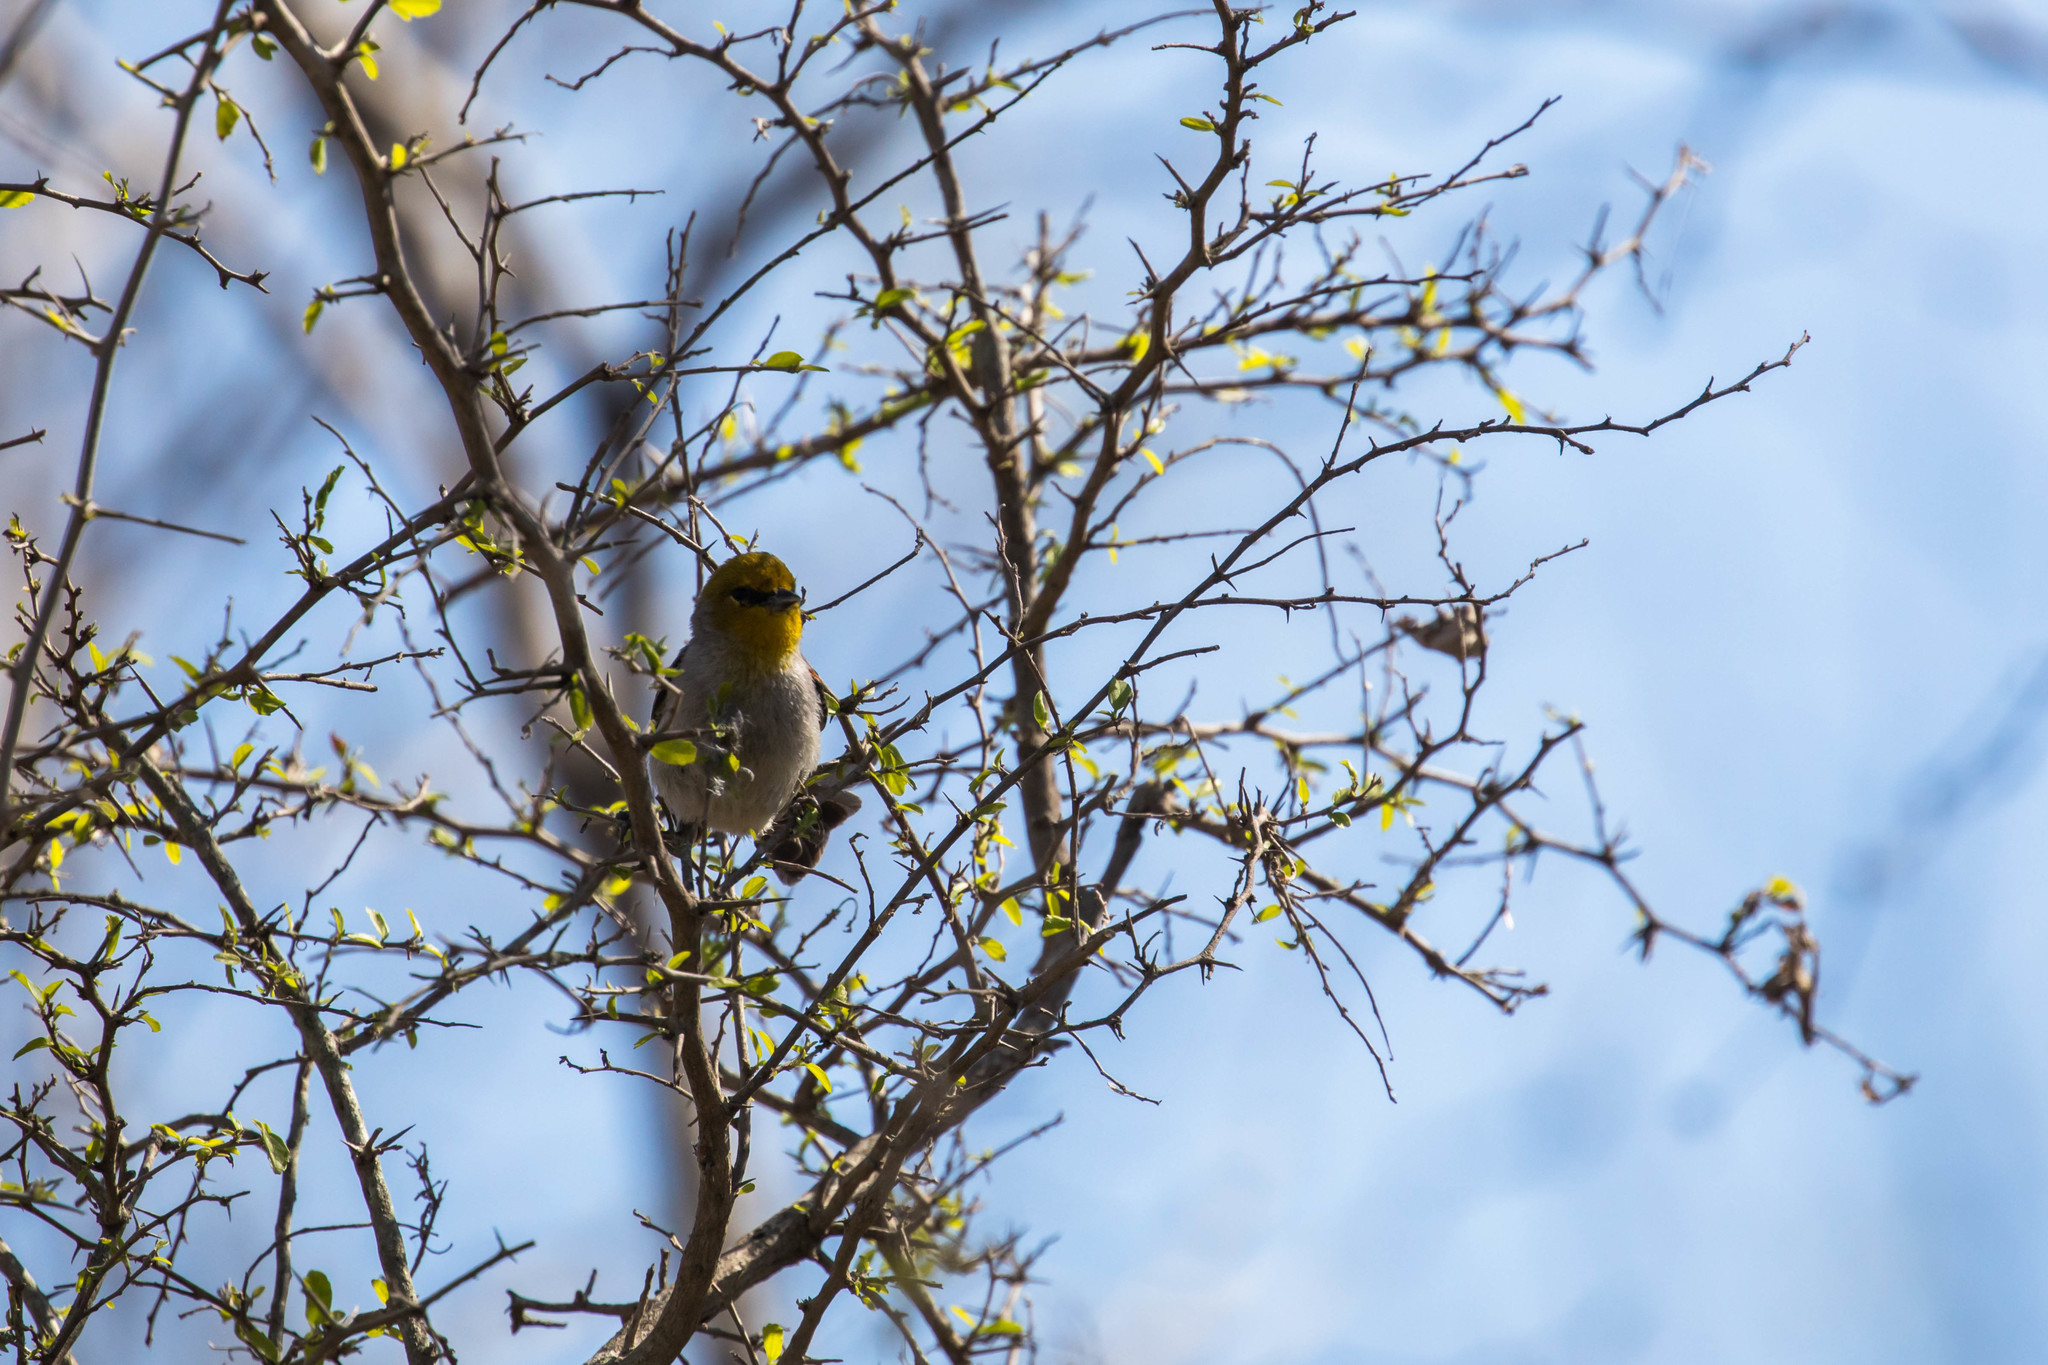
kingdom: Animalia
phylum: Chordata
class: Aves
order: Passeriformes
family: Remizidae
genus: Auriparus
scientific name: Auriparus flaviceps
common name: Verdin
